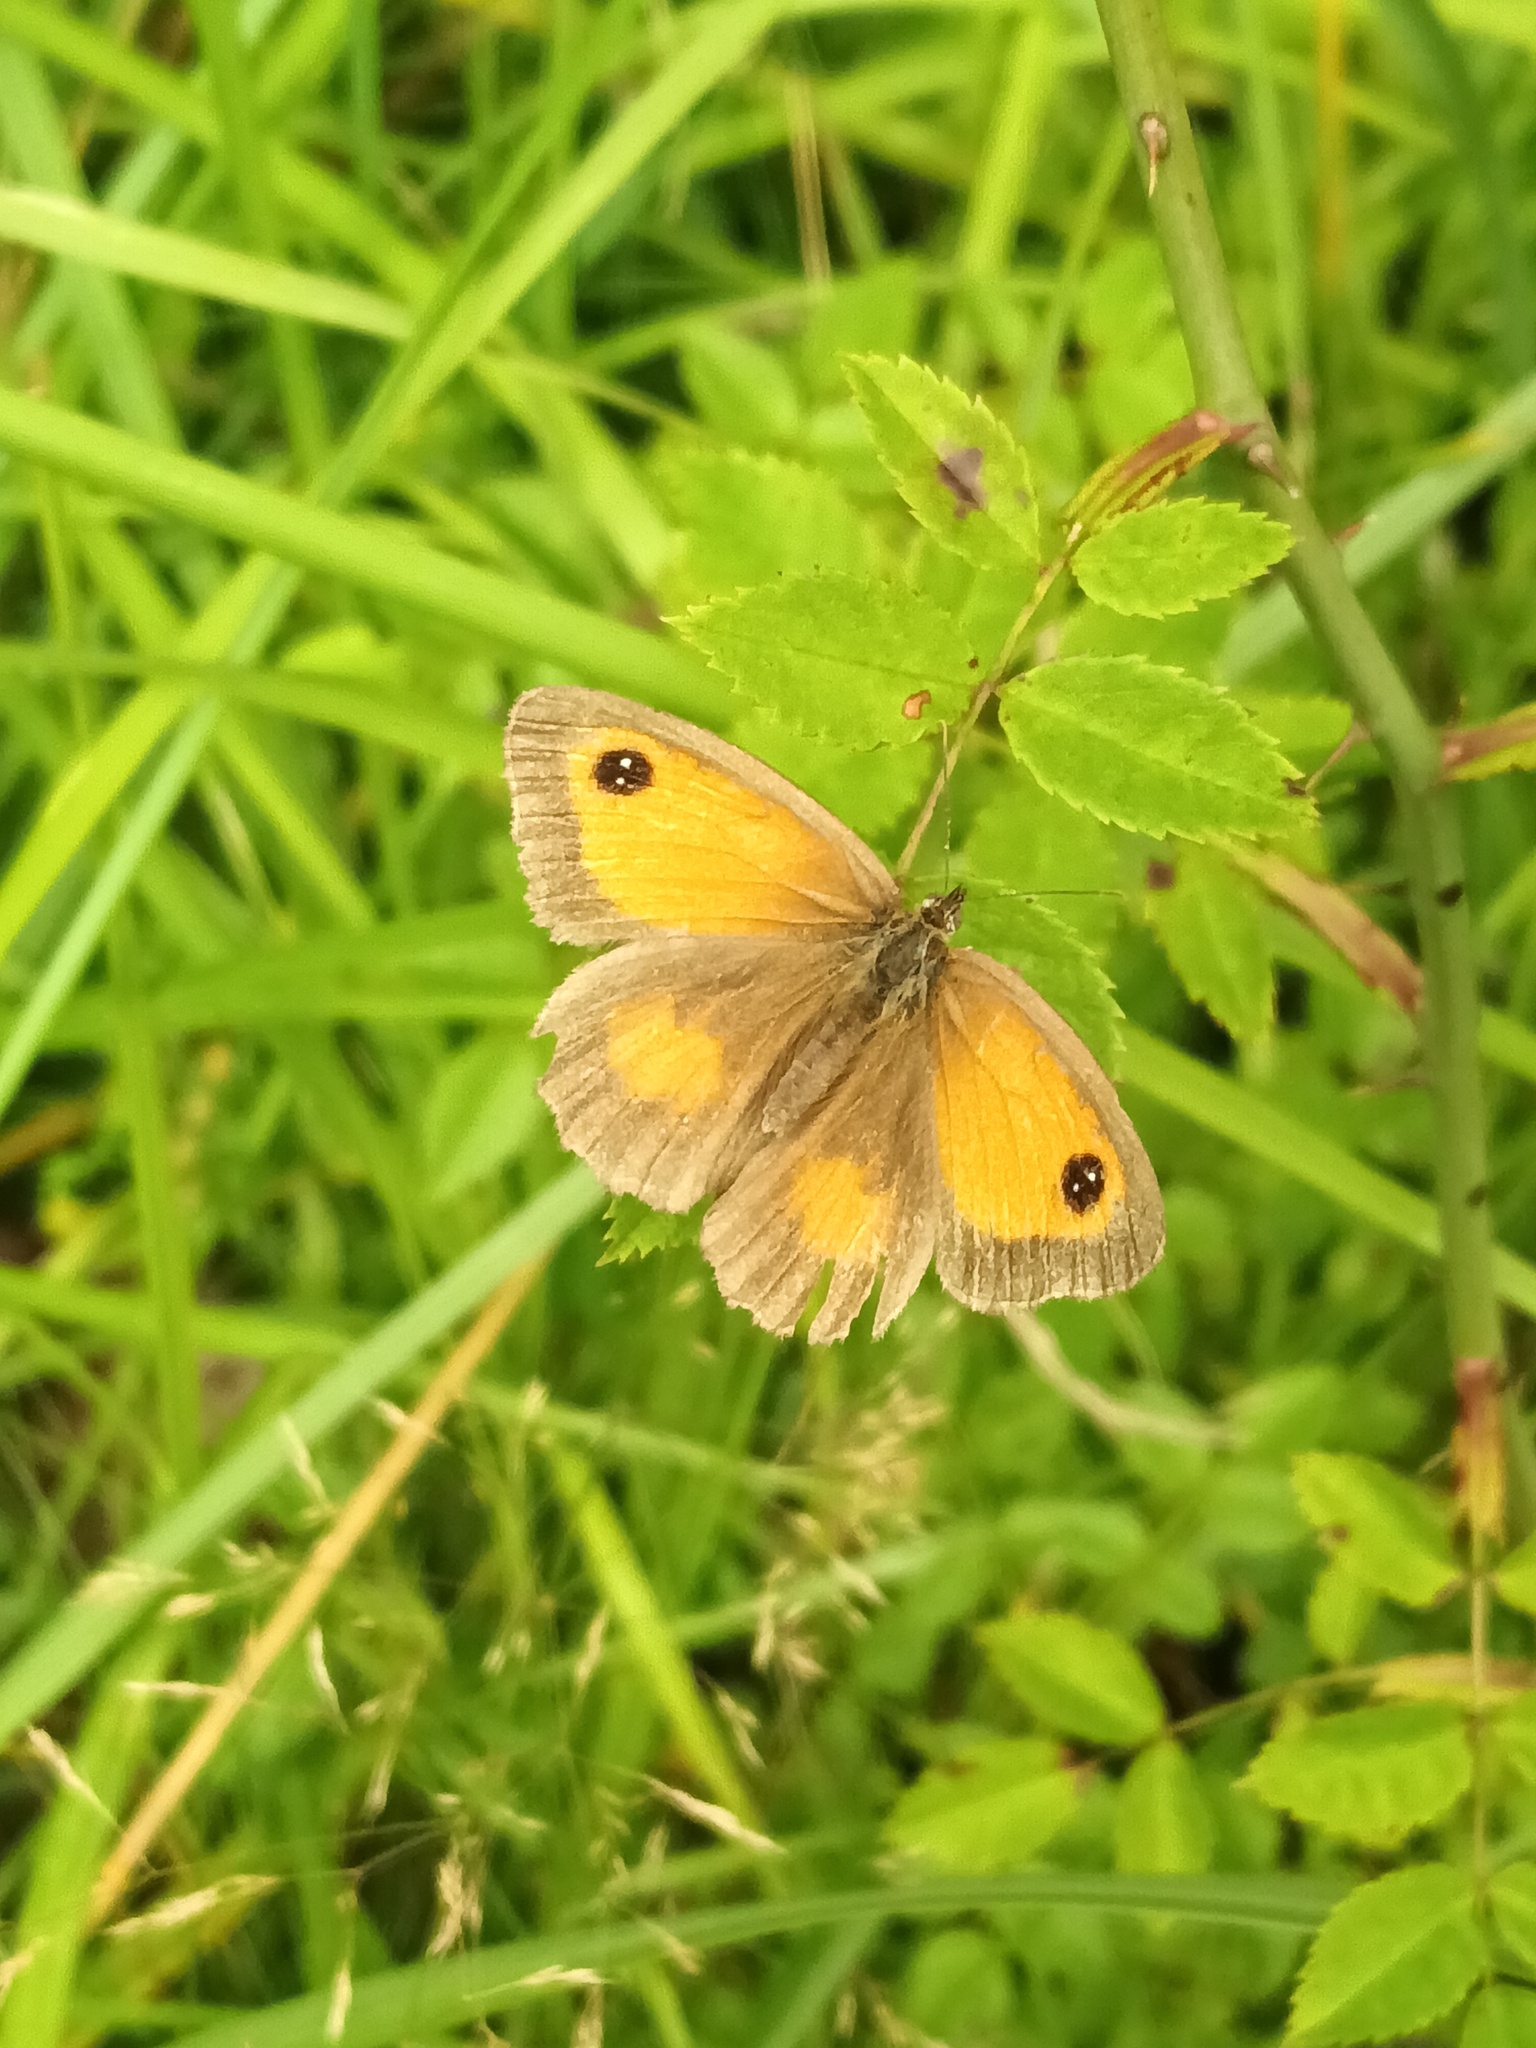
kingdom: Animalia
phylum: Arthropoda
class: Insecta
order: Lepidoptera
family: Nymphalidae
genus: Pyronia
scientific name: Pyronia tithonus
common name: Gatekeeper
